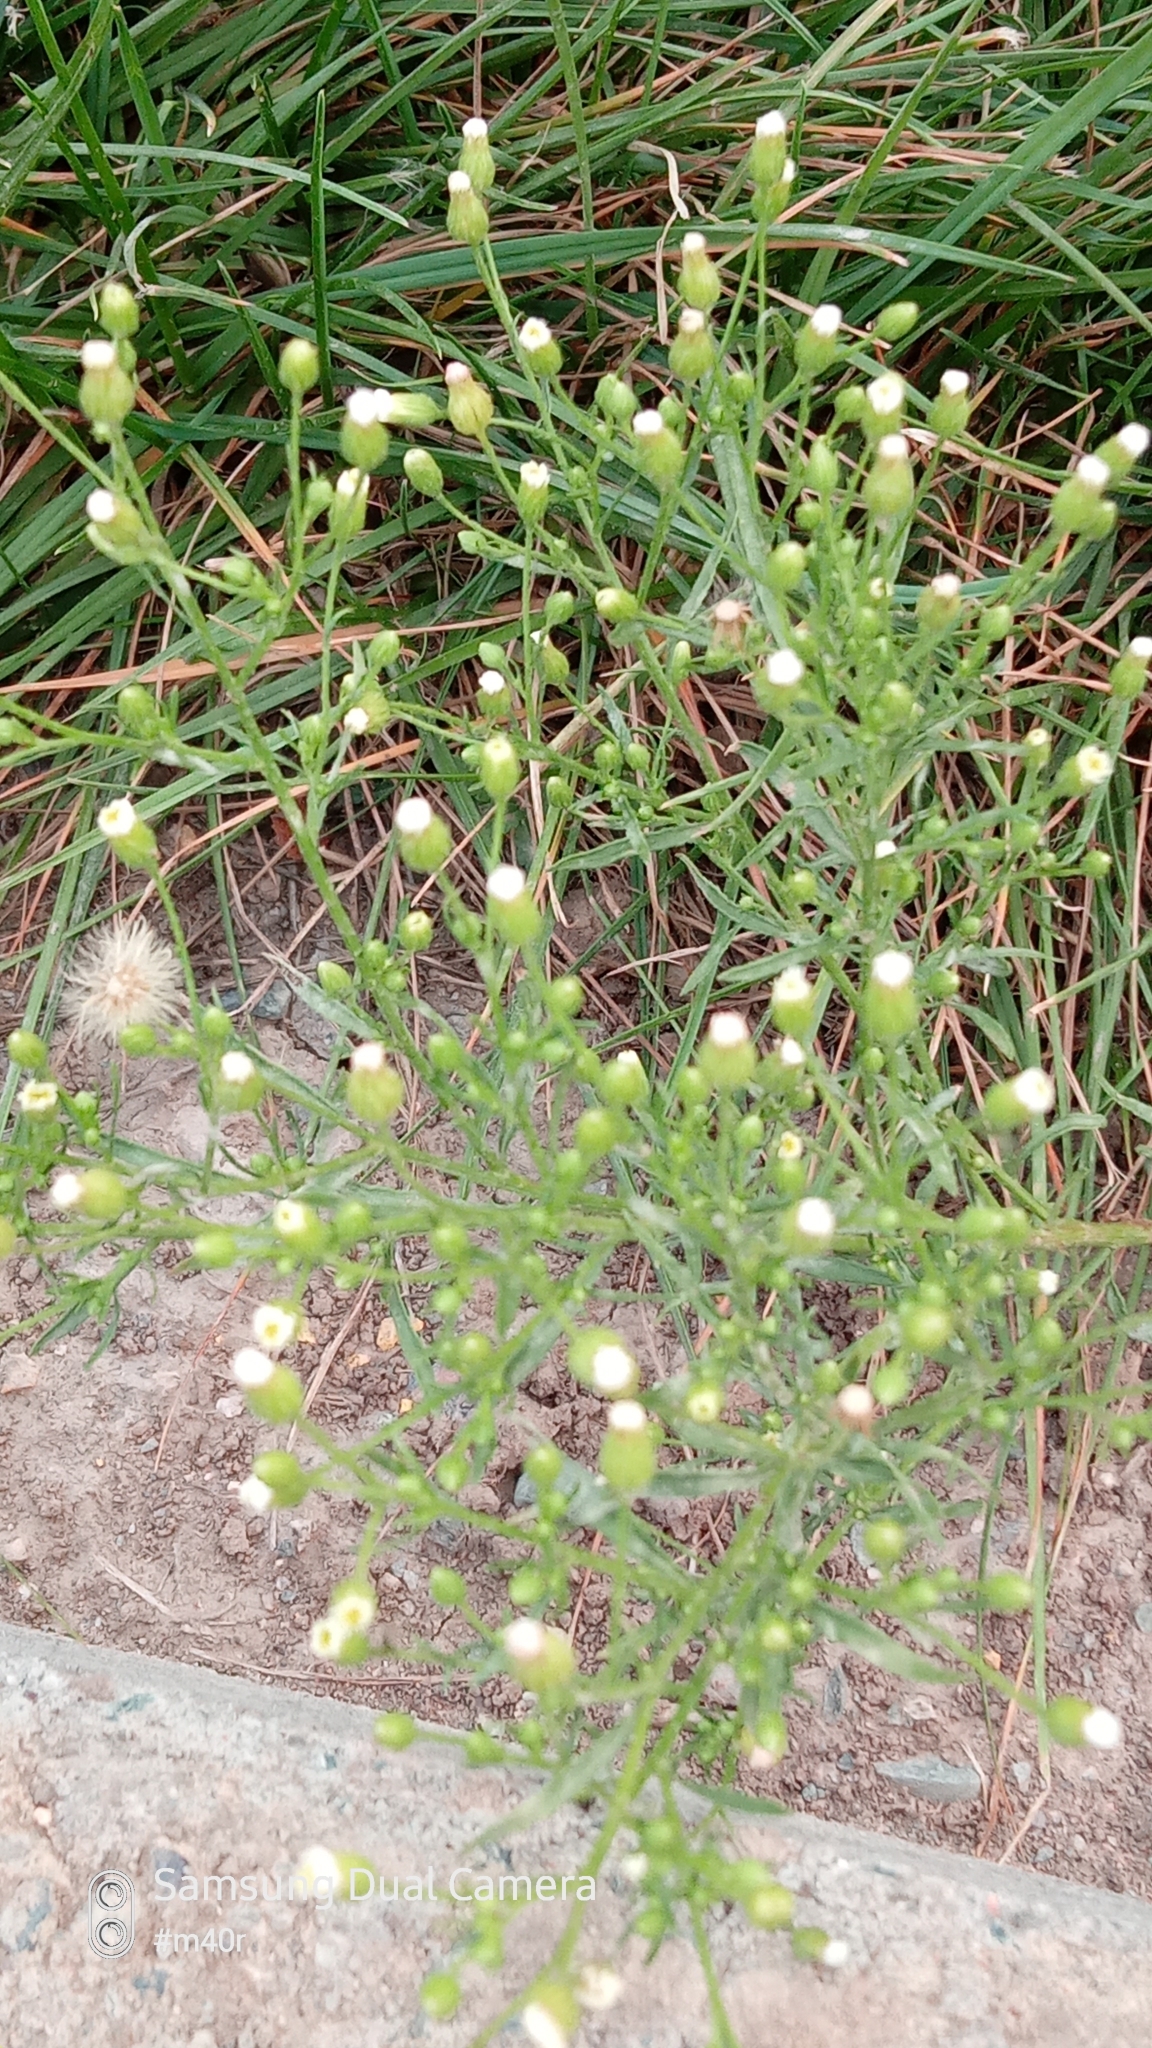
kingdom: Plantae
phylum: Tracheophyta
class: Magnoliopsida
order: Asterales
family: Asteraceae
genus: Erigeron
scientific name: Erigeron canadensis
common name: Canadian fleabane
